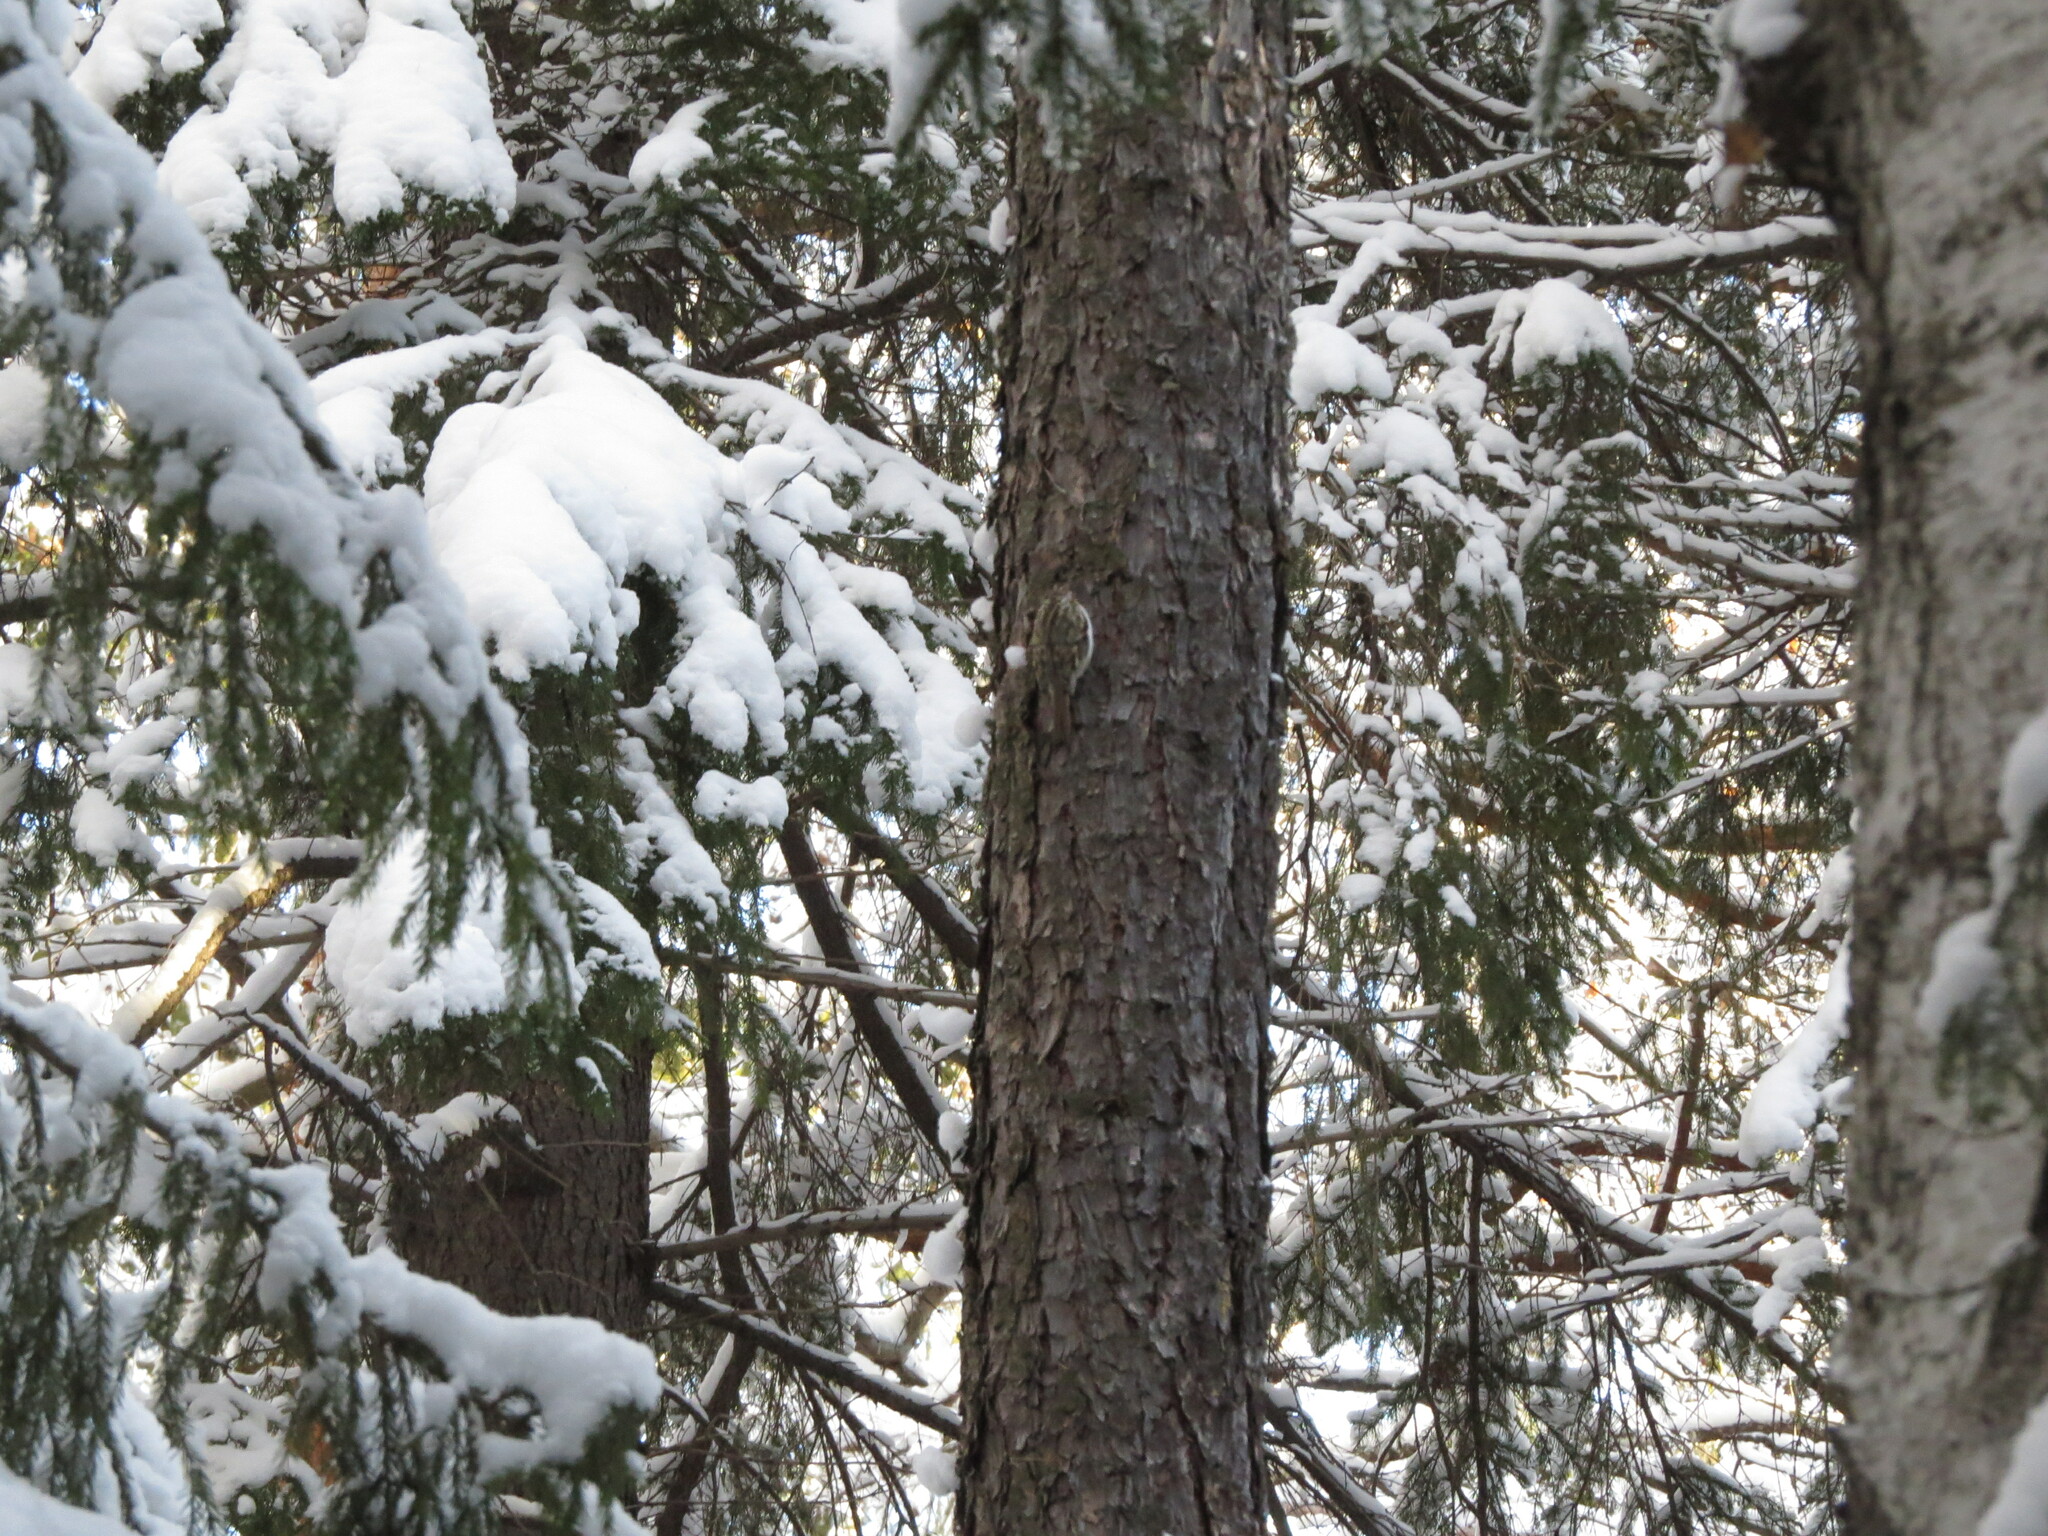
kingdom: Animalia
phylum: Chordata
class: Aves
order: Passeriformes
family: Certhiidae
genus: Certhia
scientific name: Certhia familiaris
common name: Eurasian treecreeper
